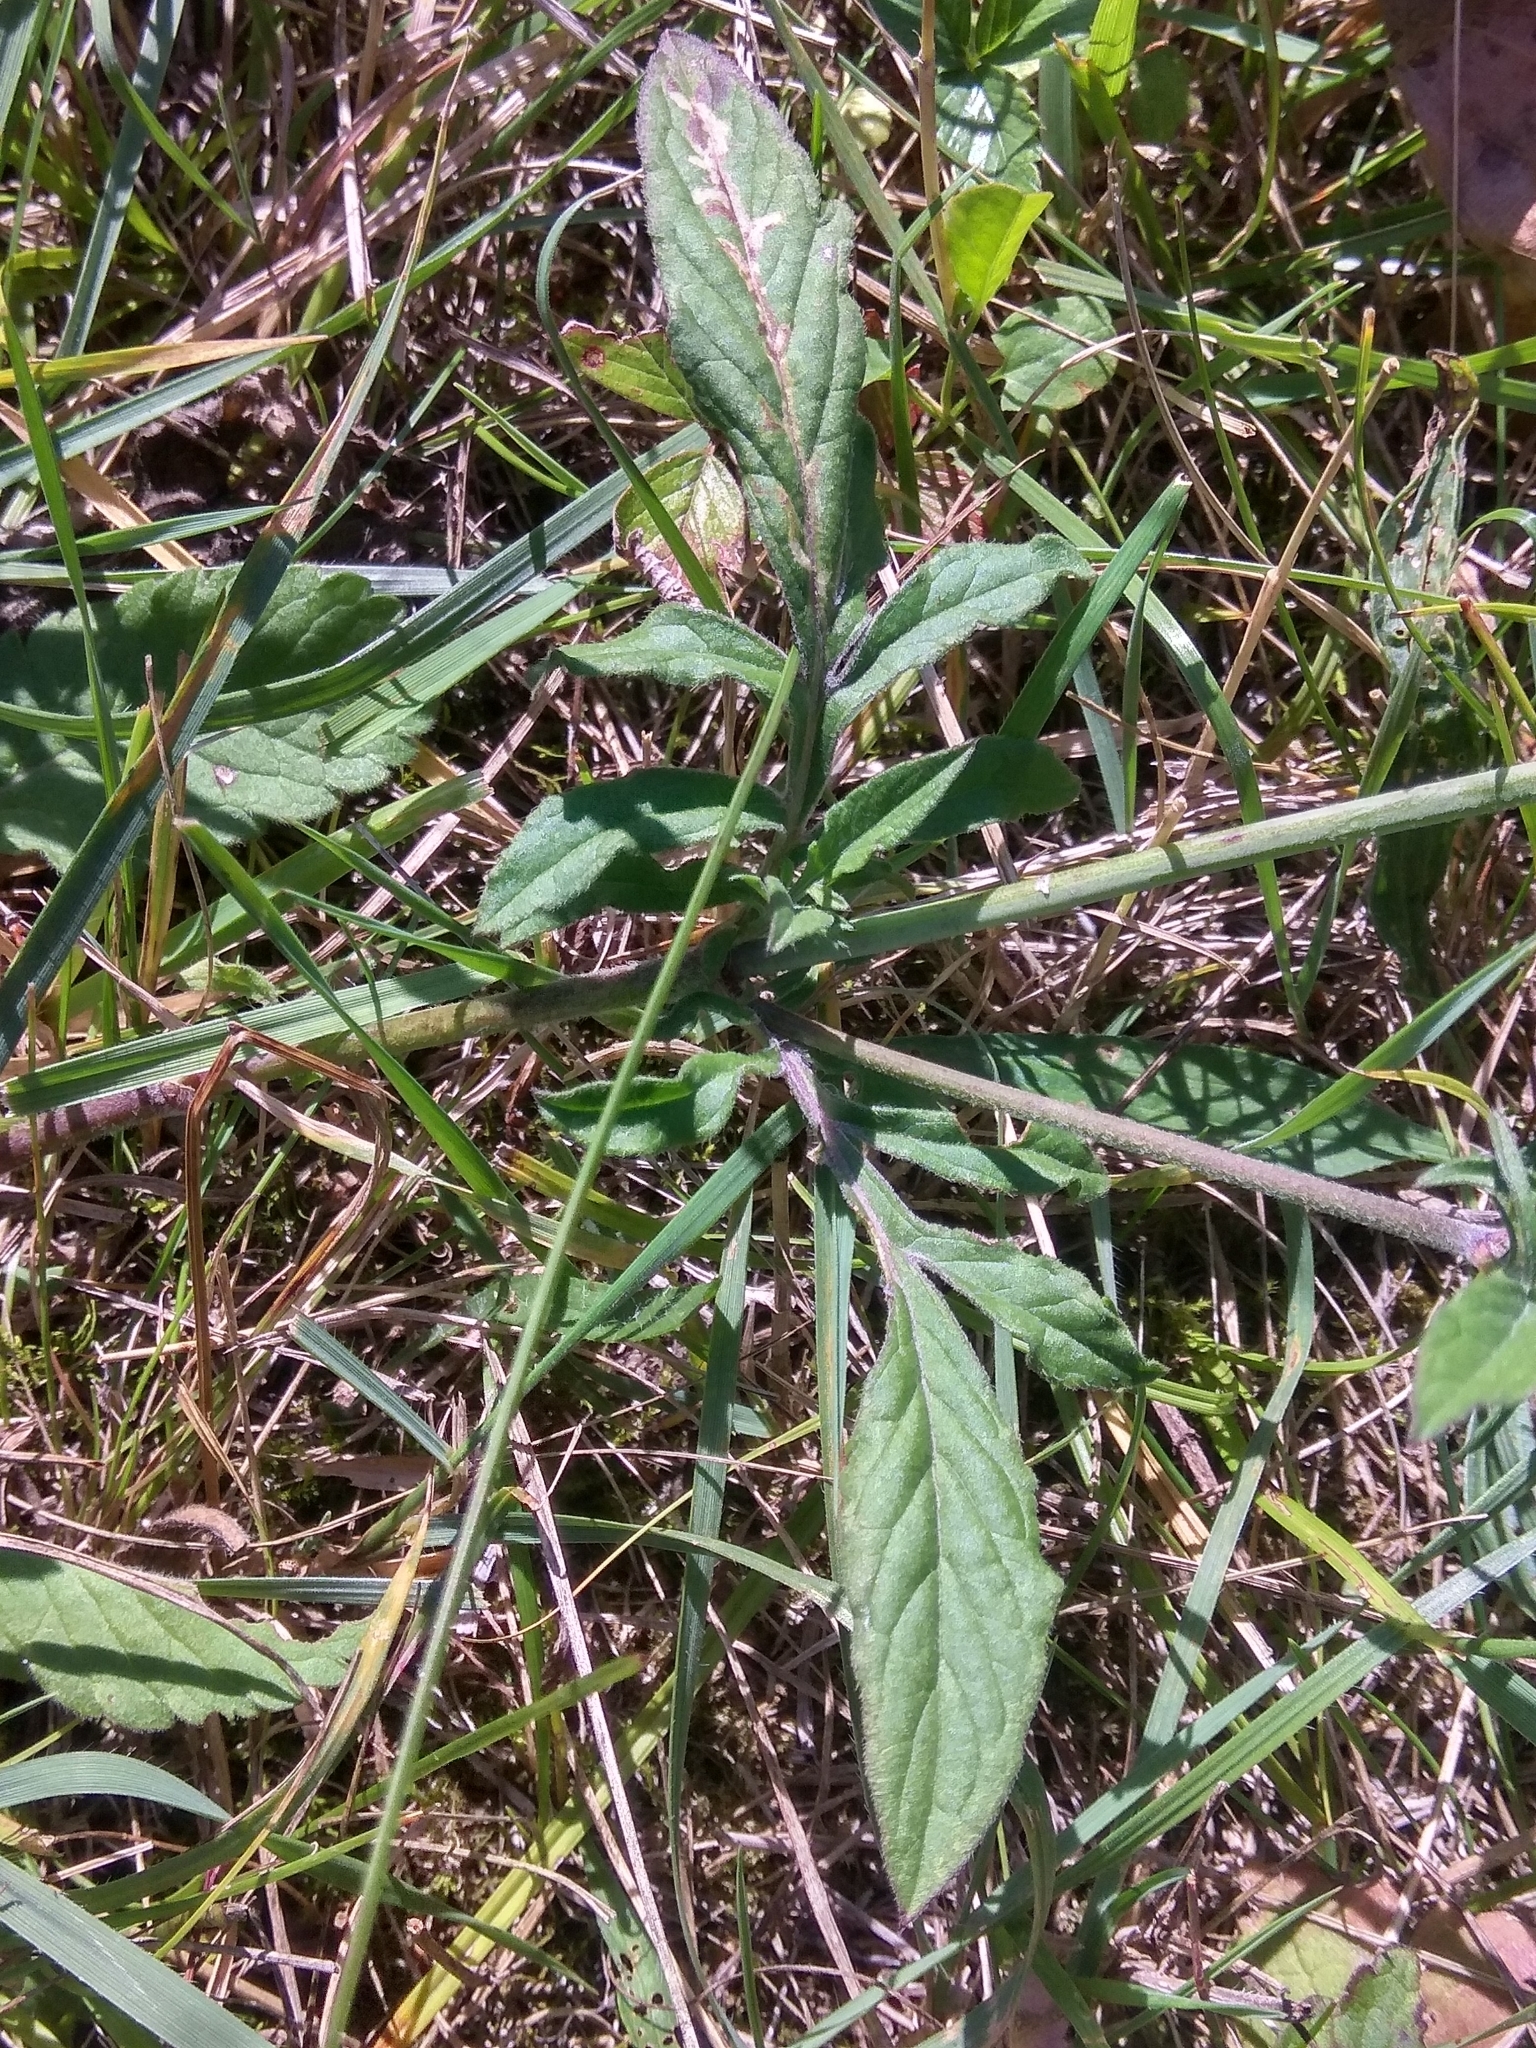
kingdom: Plantae
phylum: Tracheophyta
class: Magnoliopsida
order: Dipsacales
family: Caprifoliaceae
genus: Scabiosa
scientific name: Scabiosa ochroleuca
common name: Cream pincushions
